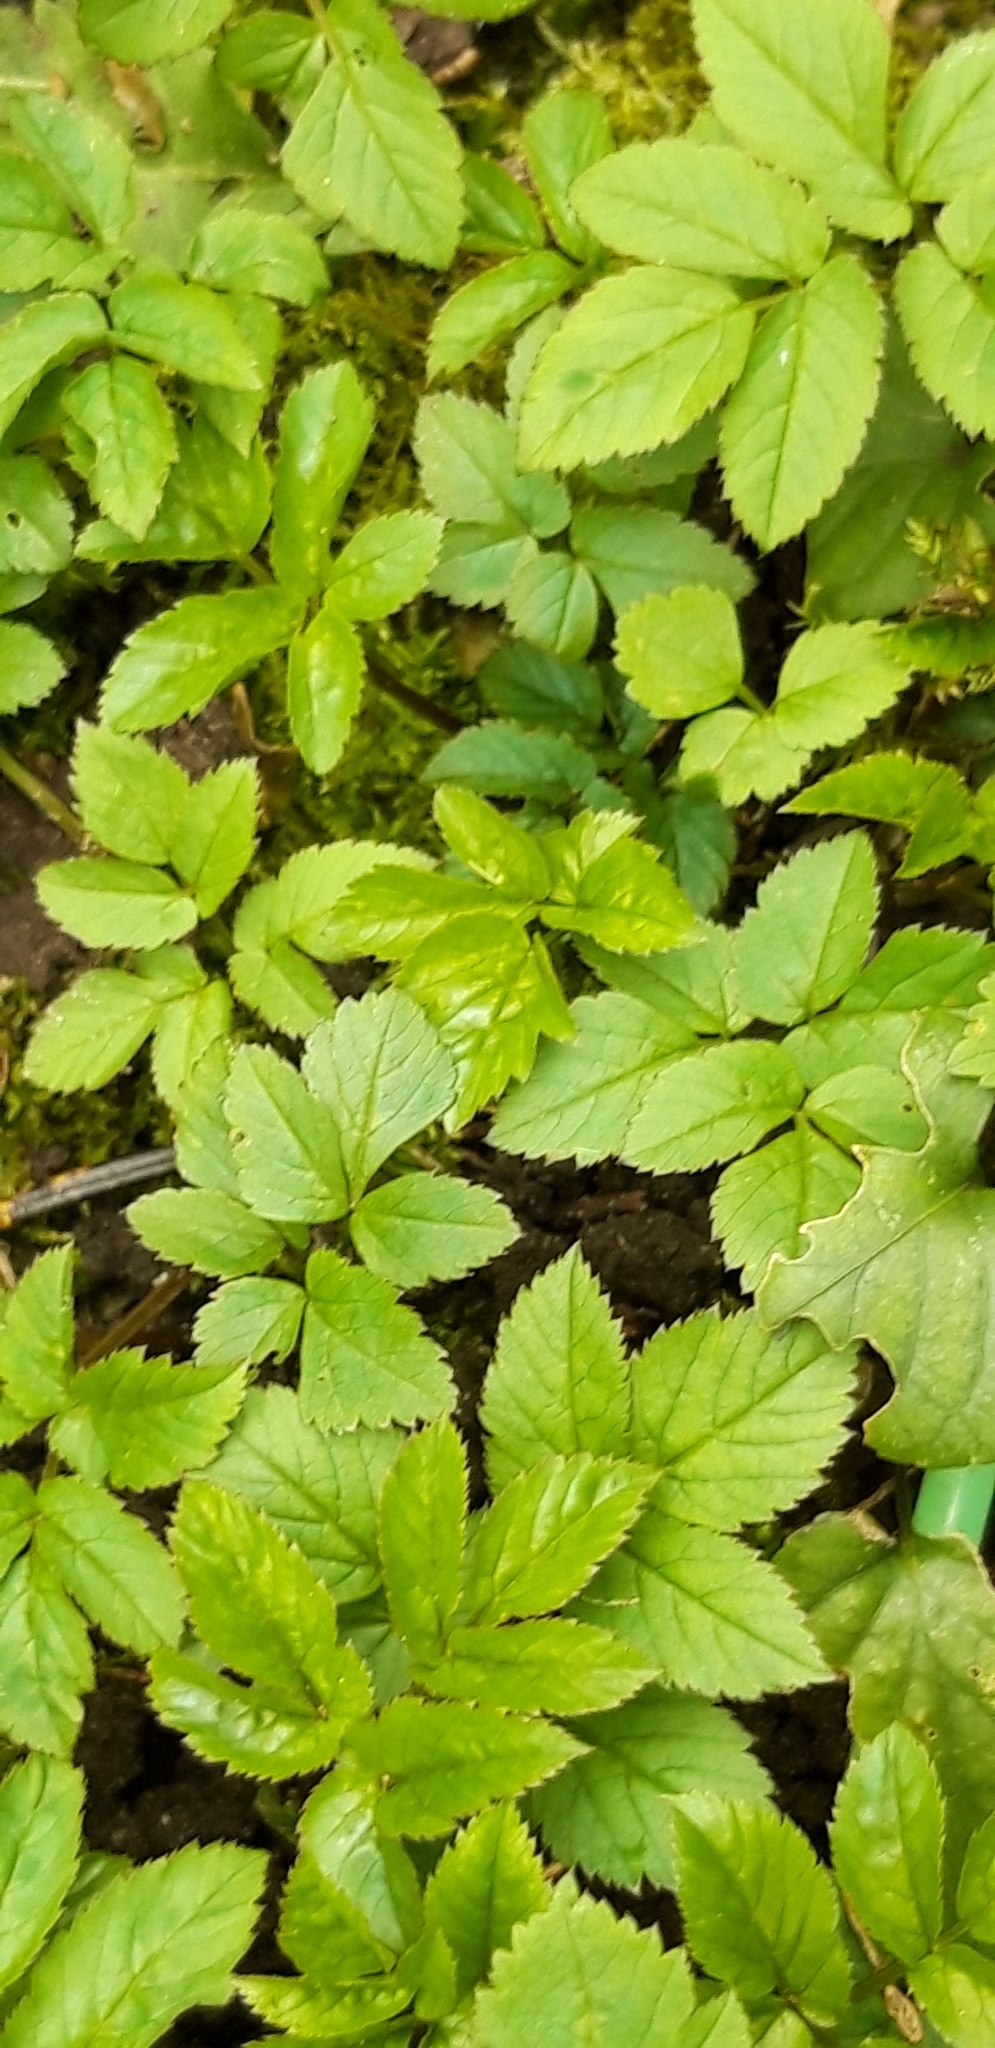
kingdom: Plantae
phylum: Tracheophyta
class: Magnoliopsida
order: Apiales
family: Apiaceae
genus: Aegopodium
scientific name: Aegopodium podagraria
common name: Ground-elder
